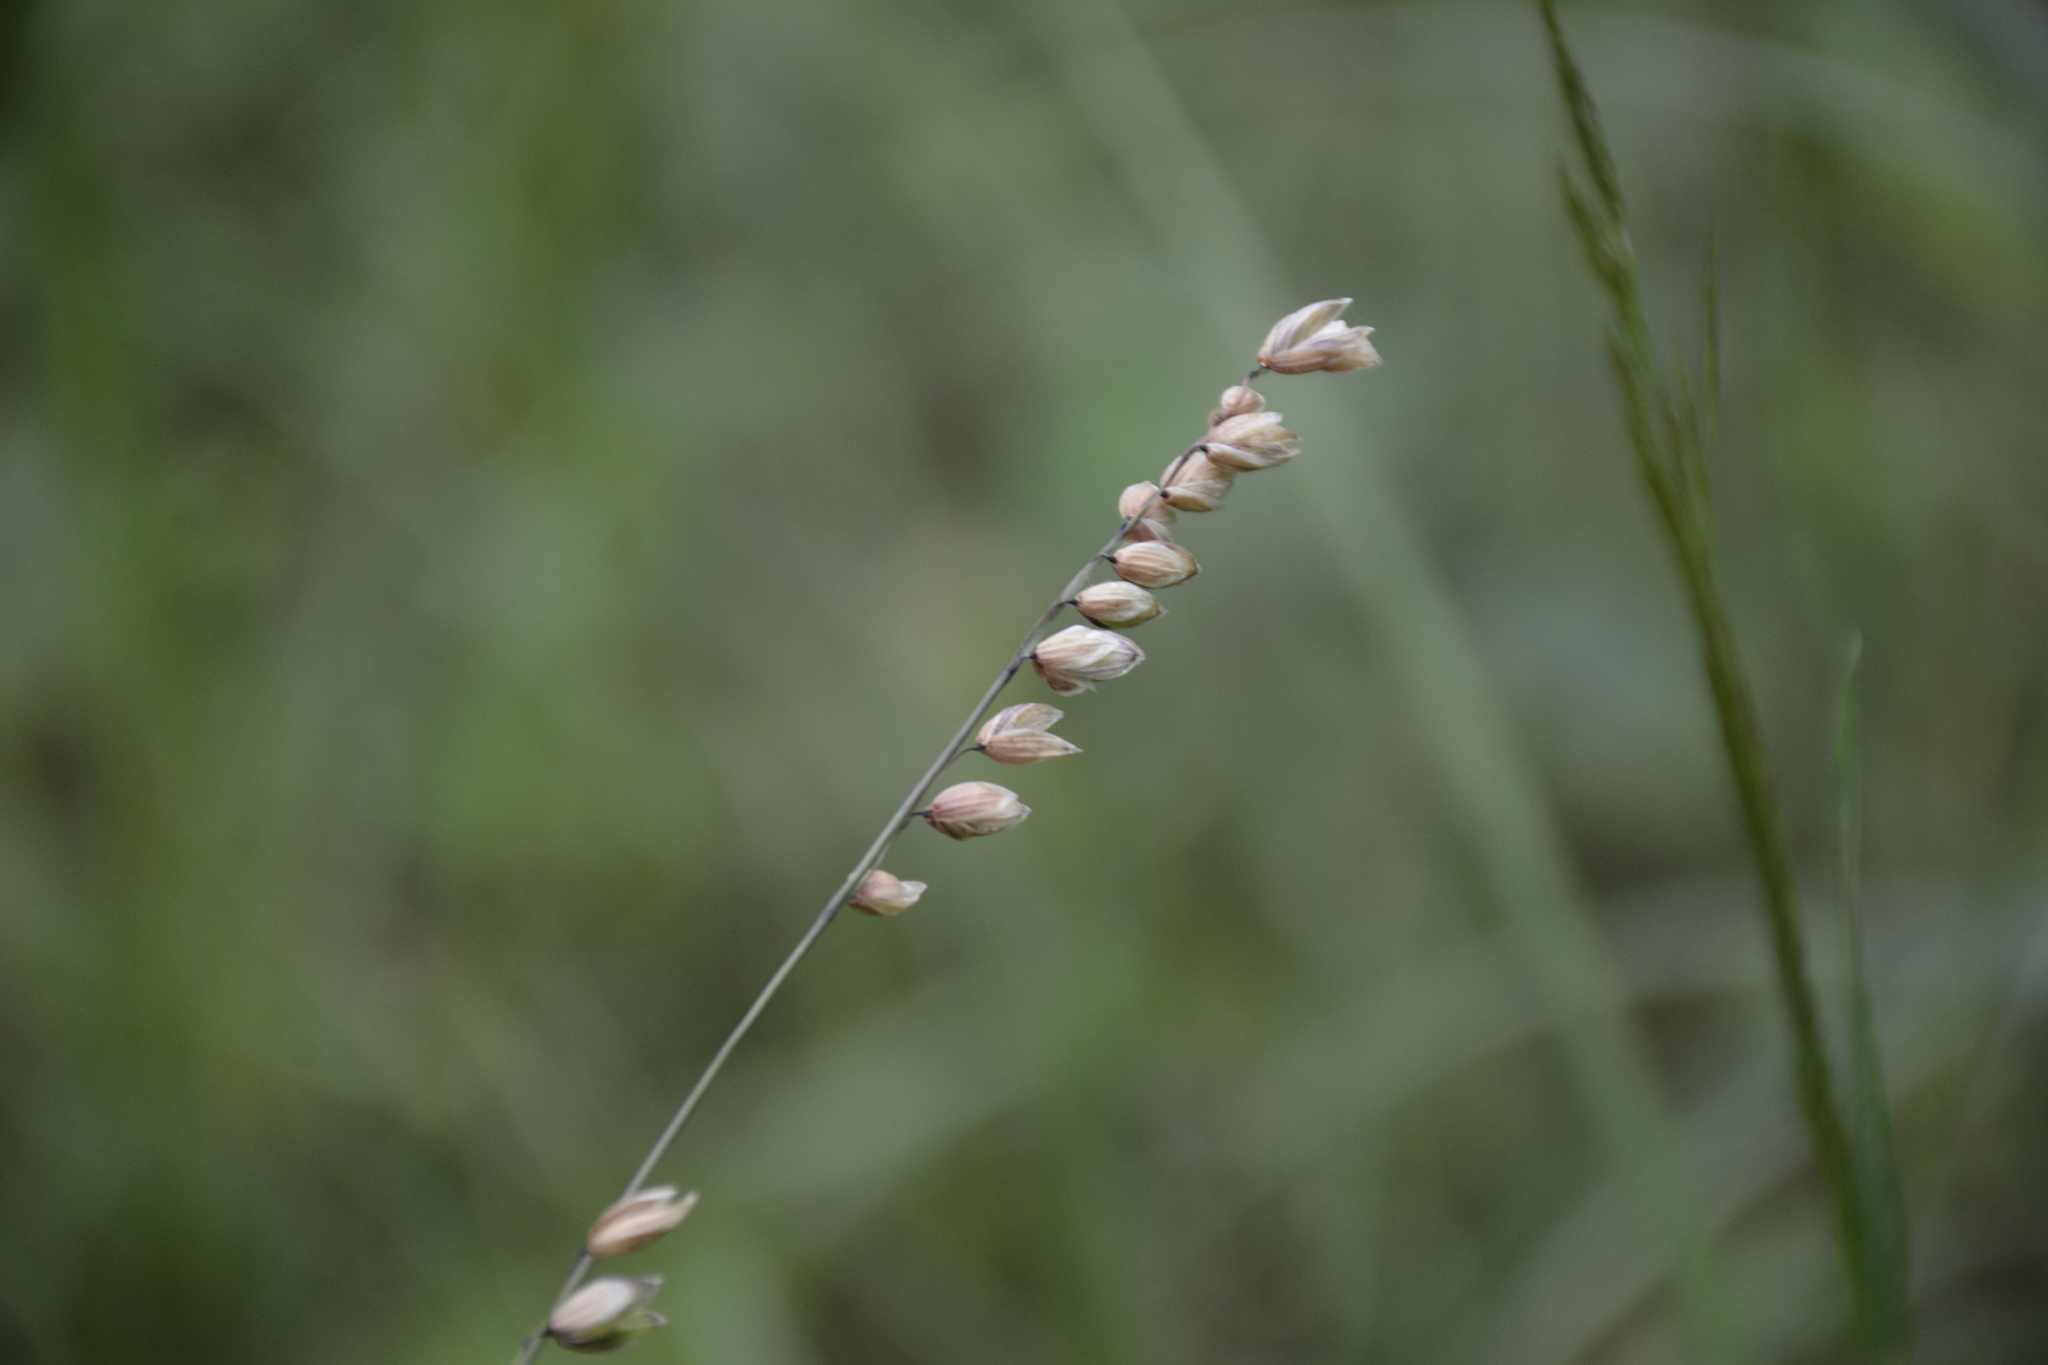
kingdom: Plantae
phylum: Tracheophyta
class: Liliopsida
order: Poales
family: Poaceae
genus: Melica
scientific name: Melica nutans
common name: Mountain melick
